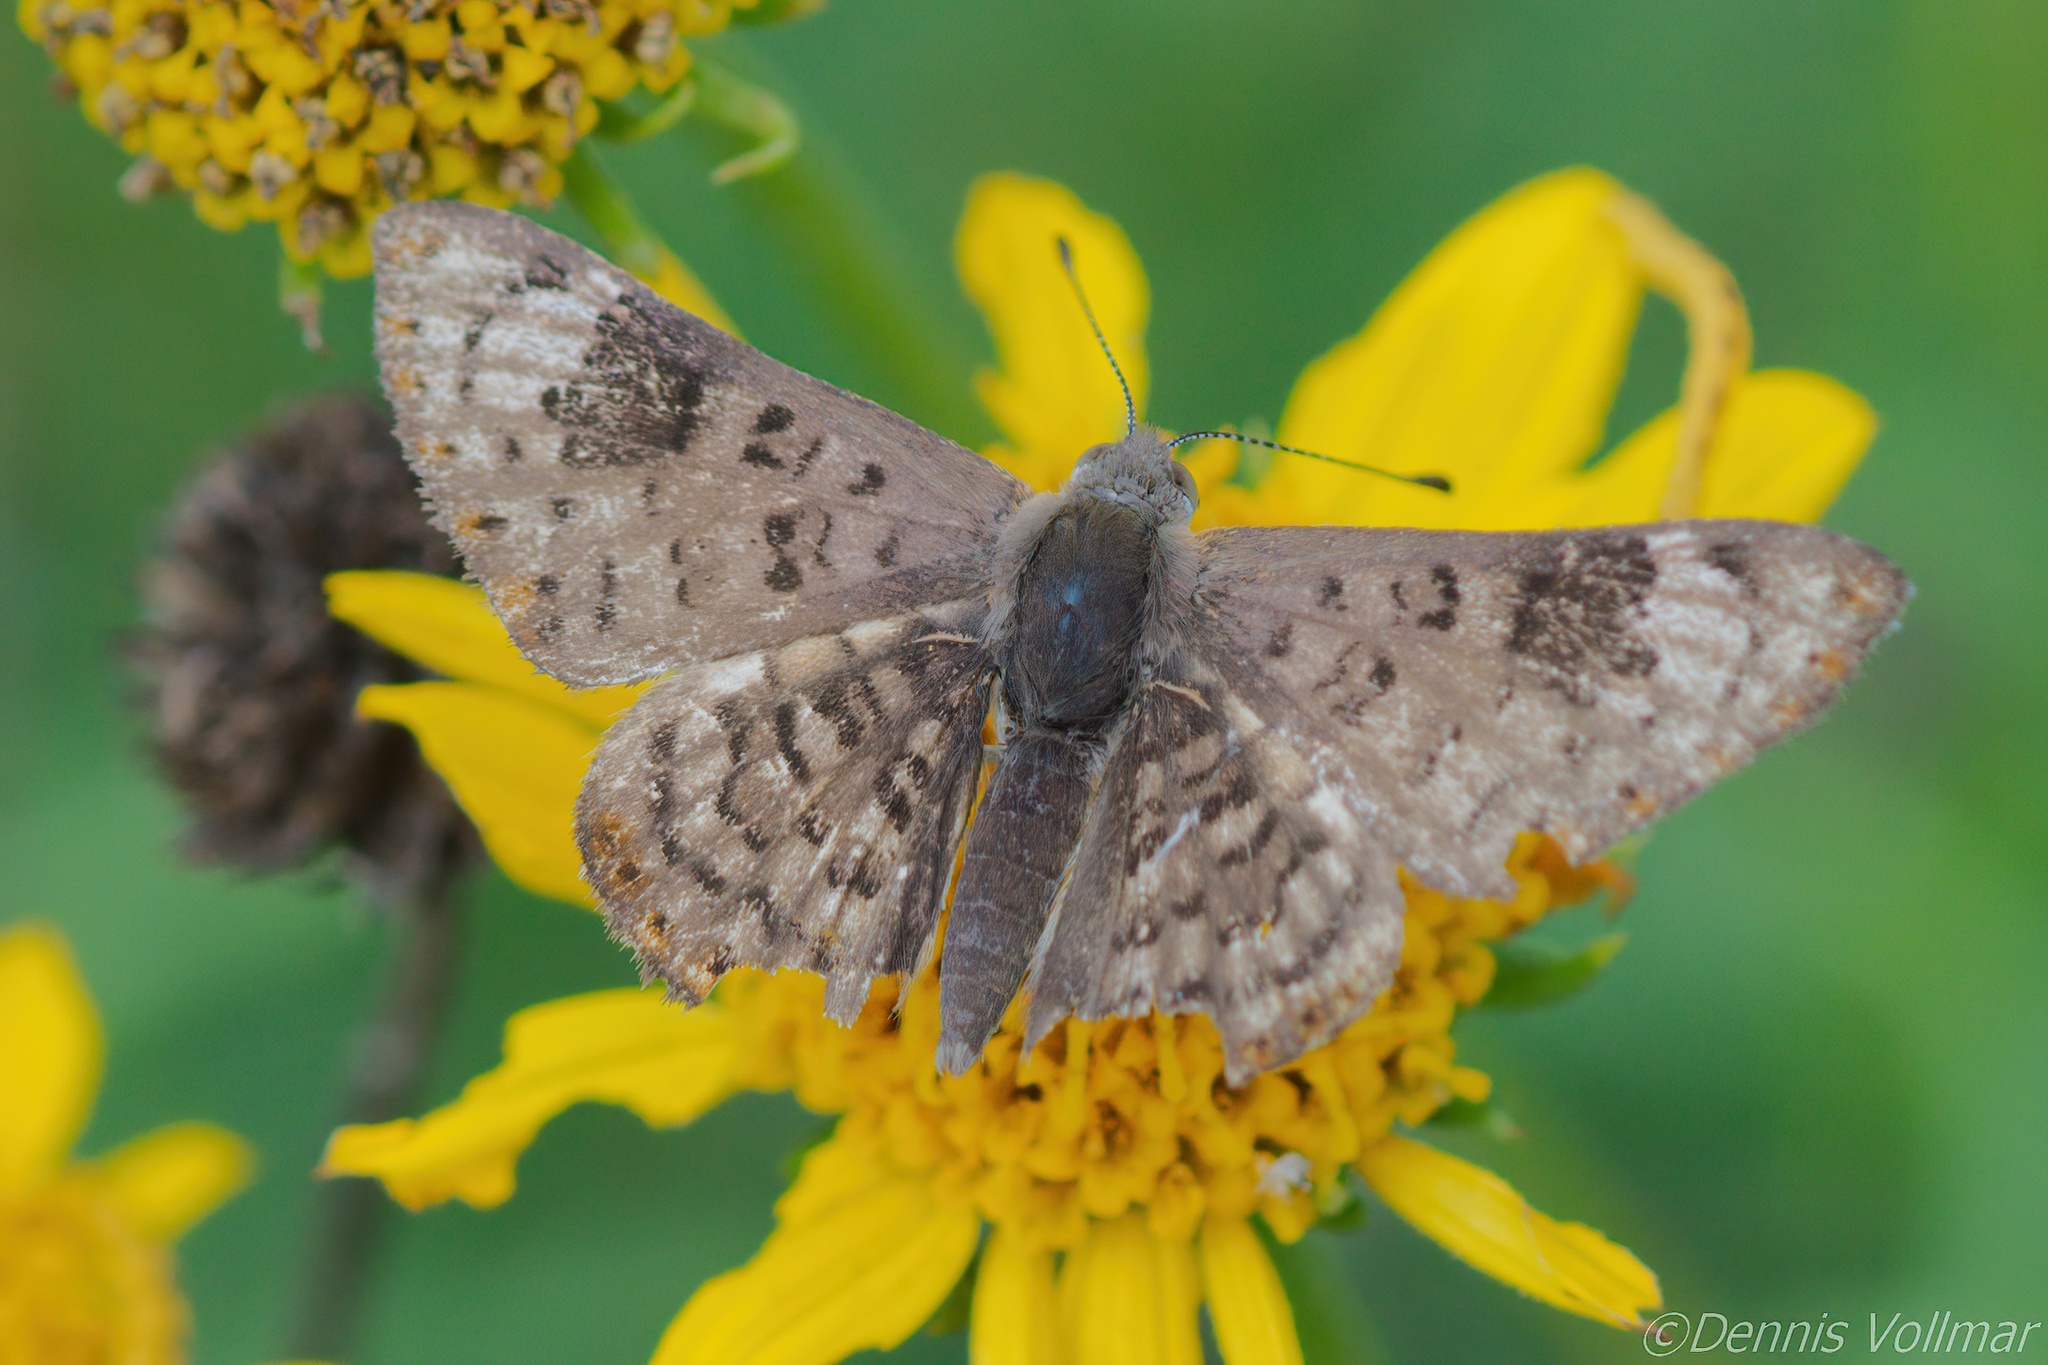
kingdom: Animalia
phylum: Arthropoda
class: Insecta
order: Lepidoptera
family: Riodinidae
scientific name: Riodinidae
